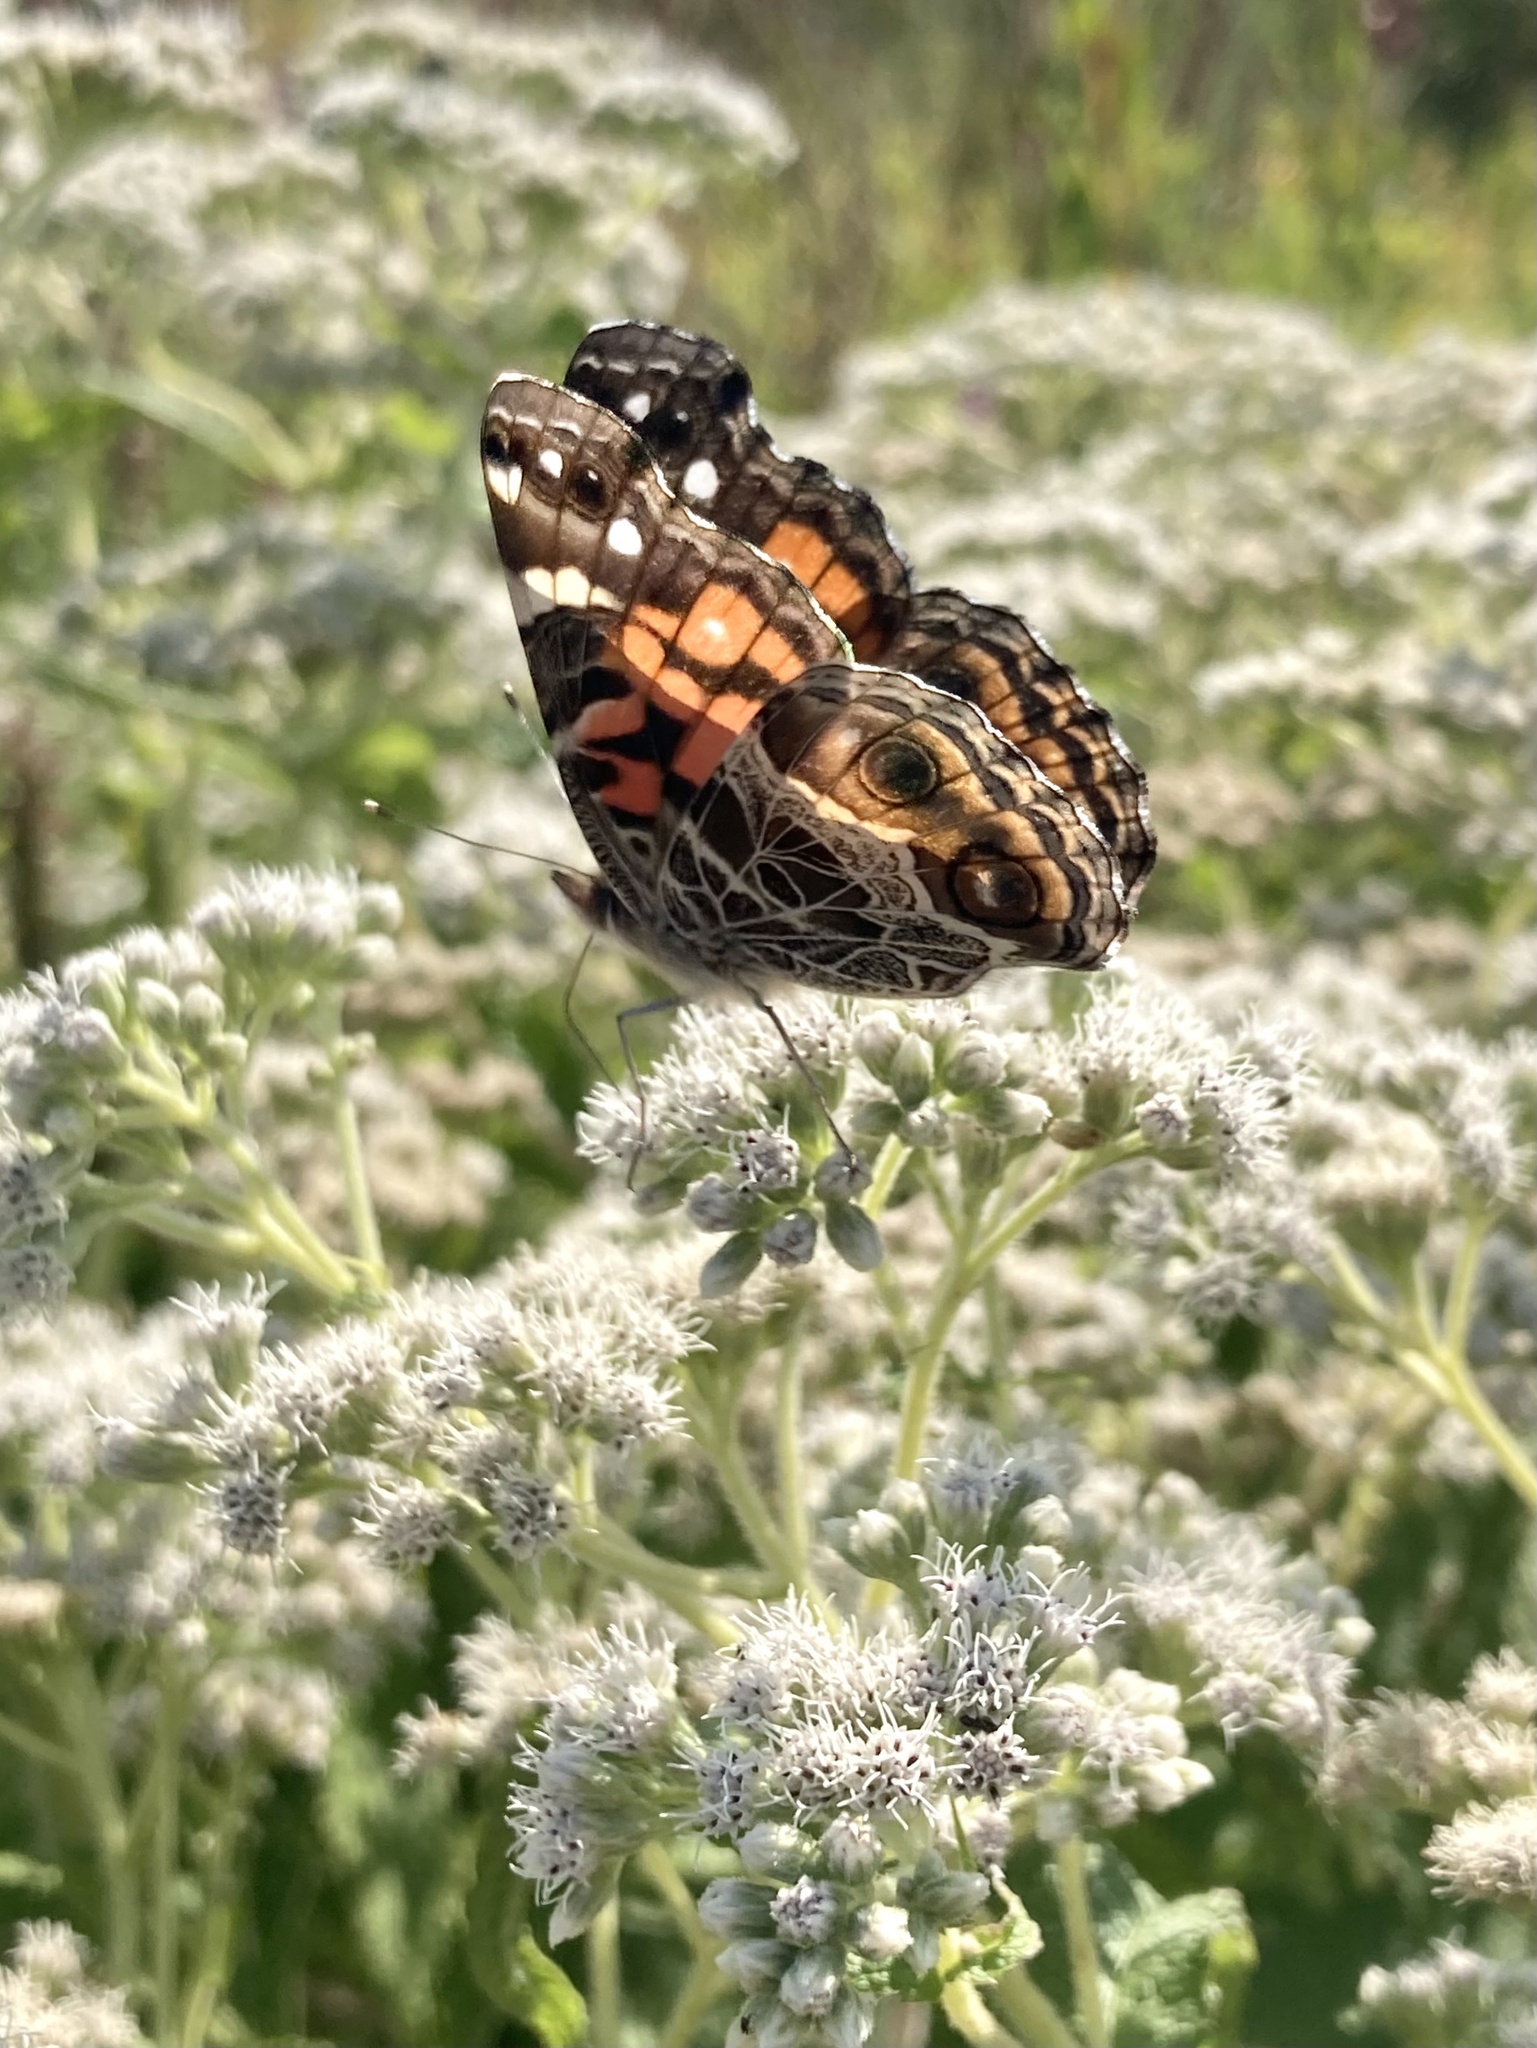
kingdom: Animalia
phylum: Arthropoda
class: Insecta
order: Lepidoptera
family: Nymphalidae
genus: Vanessa
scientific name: Vanessa virginiensis
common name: American lady
